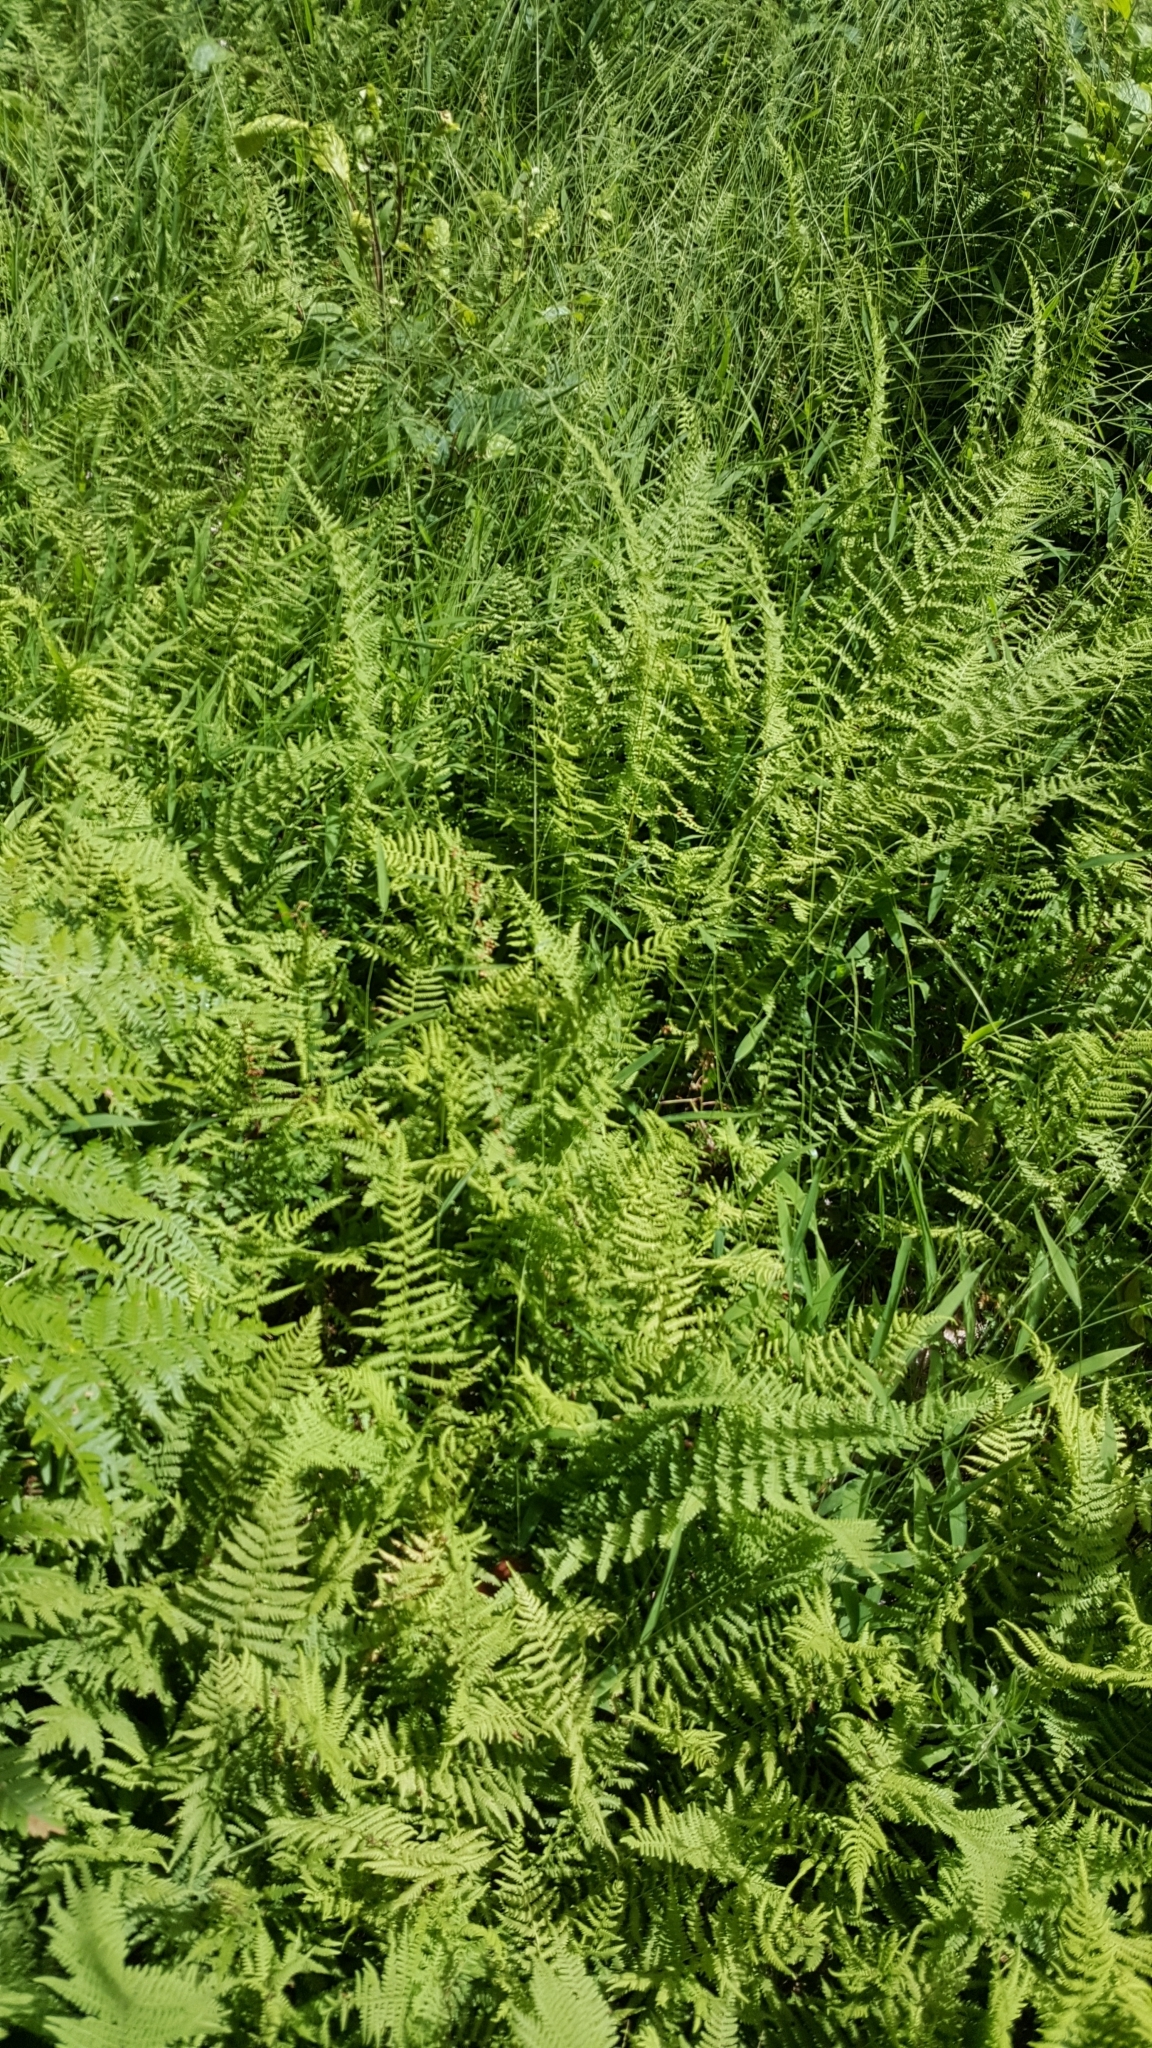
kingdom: Plantae
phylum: Tracheophyta
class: Polypodiopsida
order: Polypodiales
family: Dennstaedtiaceae
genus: Sitobolium
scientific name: Sitobolium punctilobum
